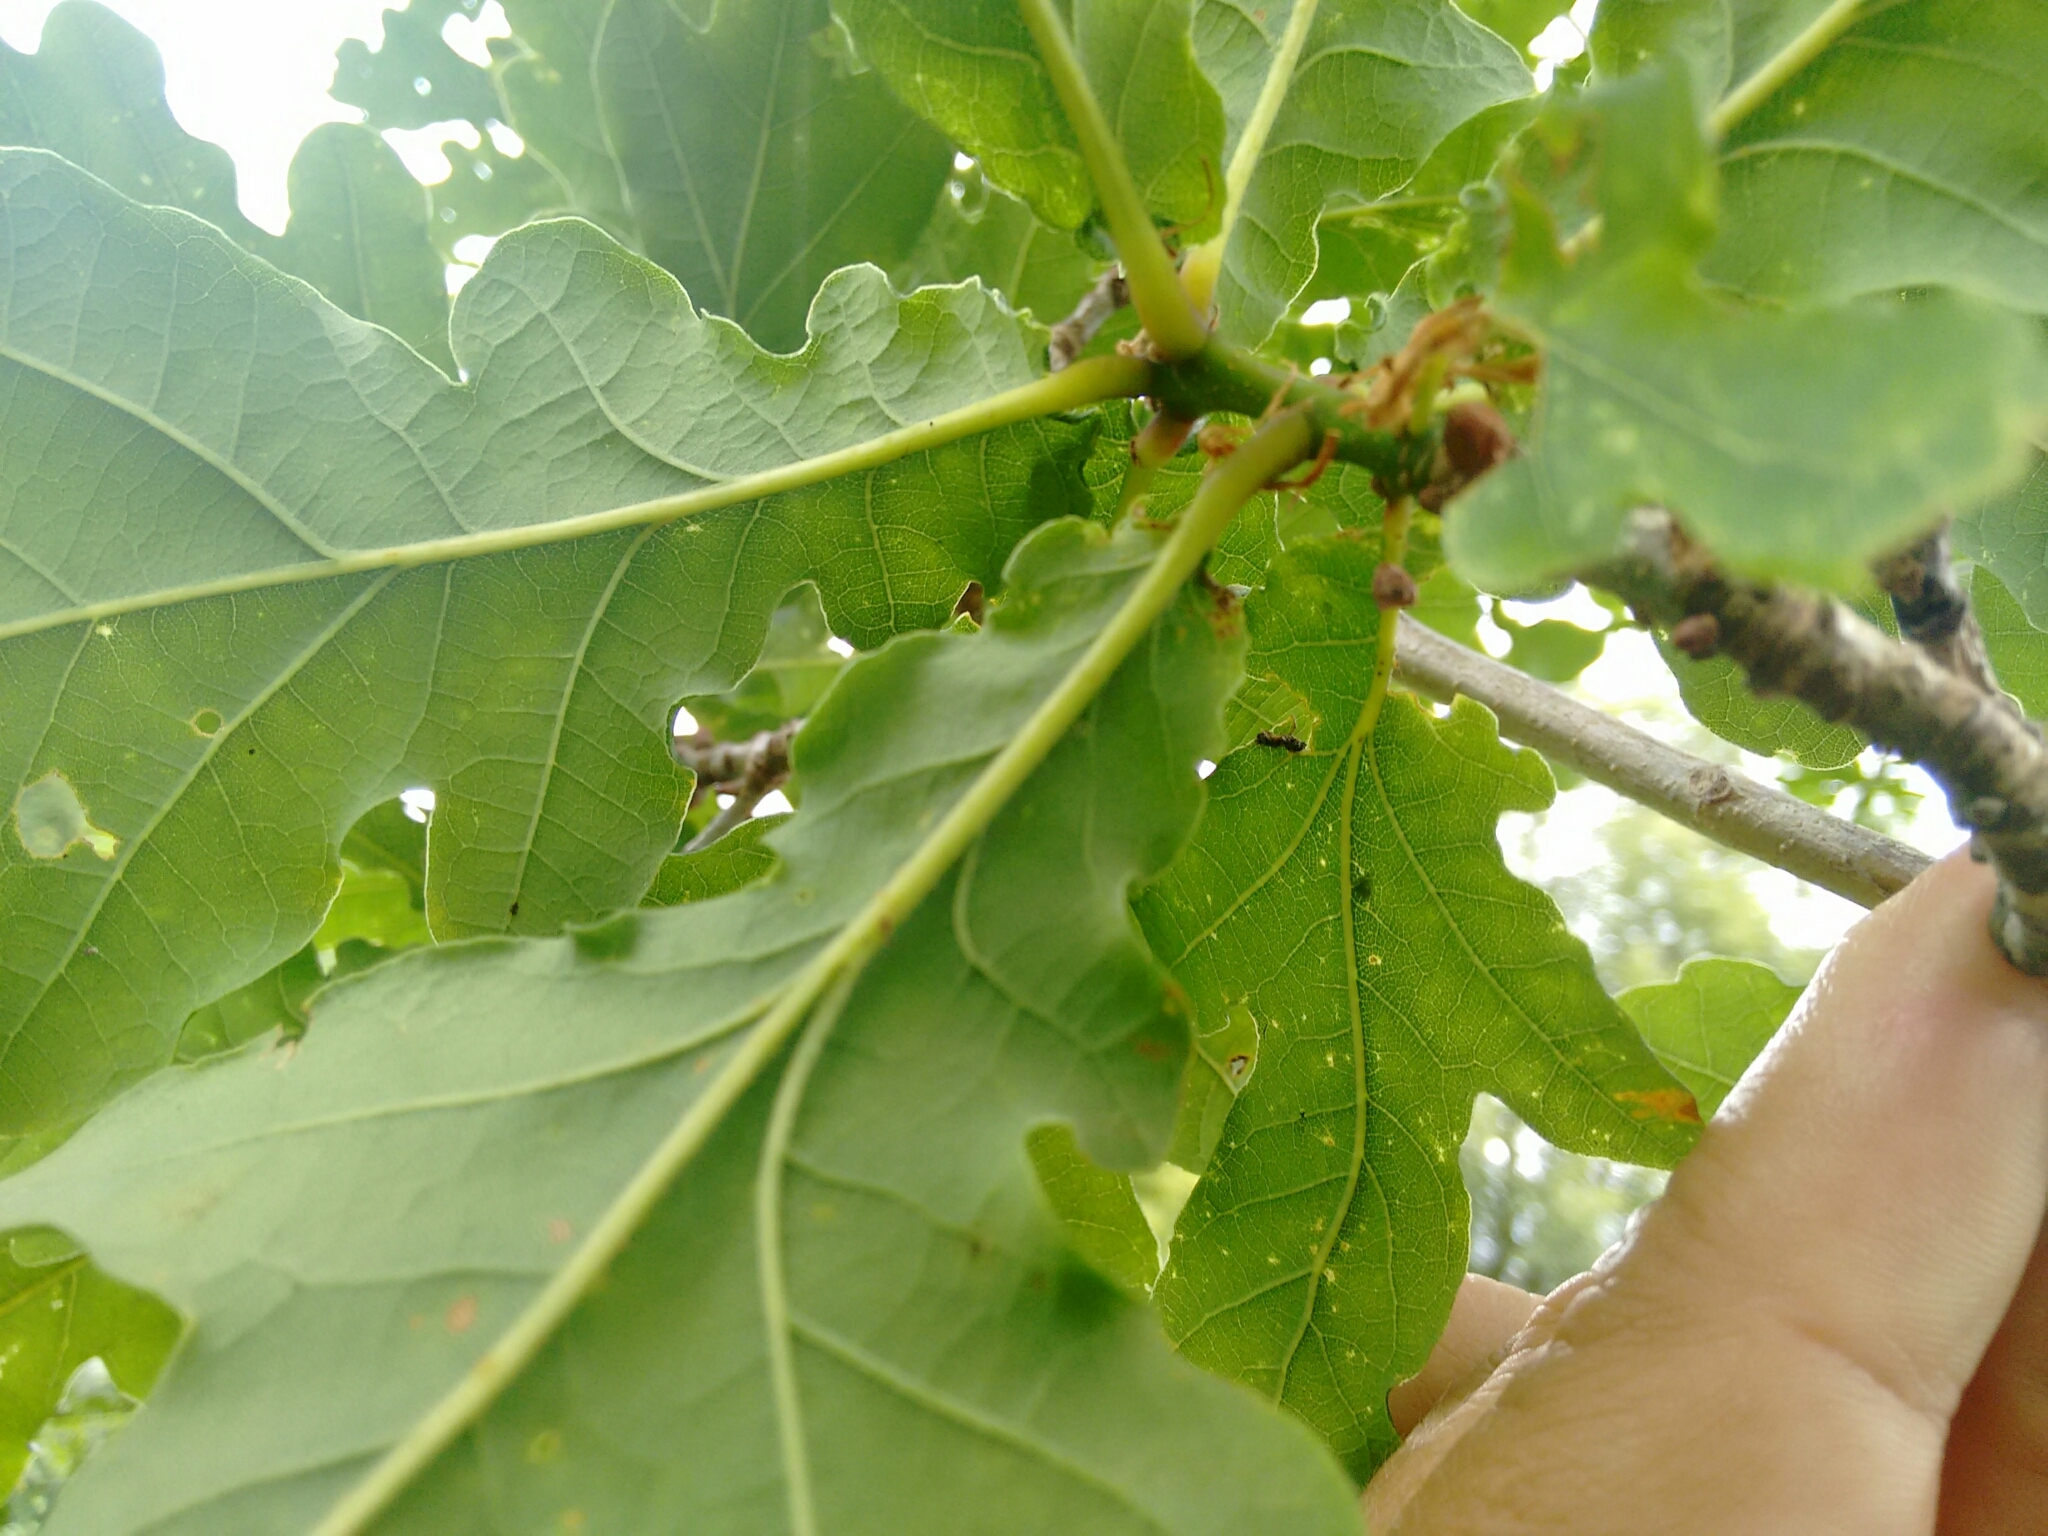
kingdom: Plantae
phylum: Tracheophyta
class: Magnoliopsida
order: Fagales
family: Fagaceae
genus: Quercus
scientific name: Quercus robur
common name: Pedunculate oak
